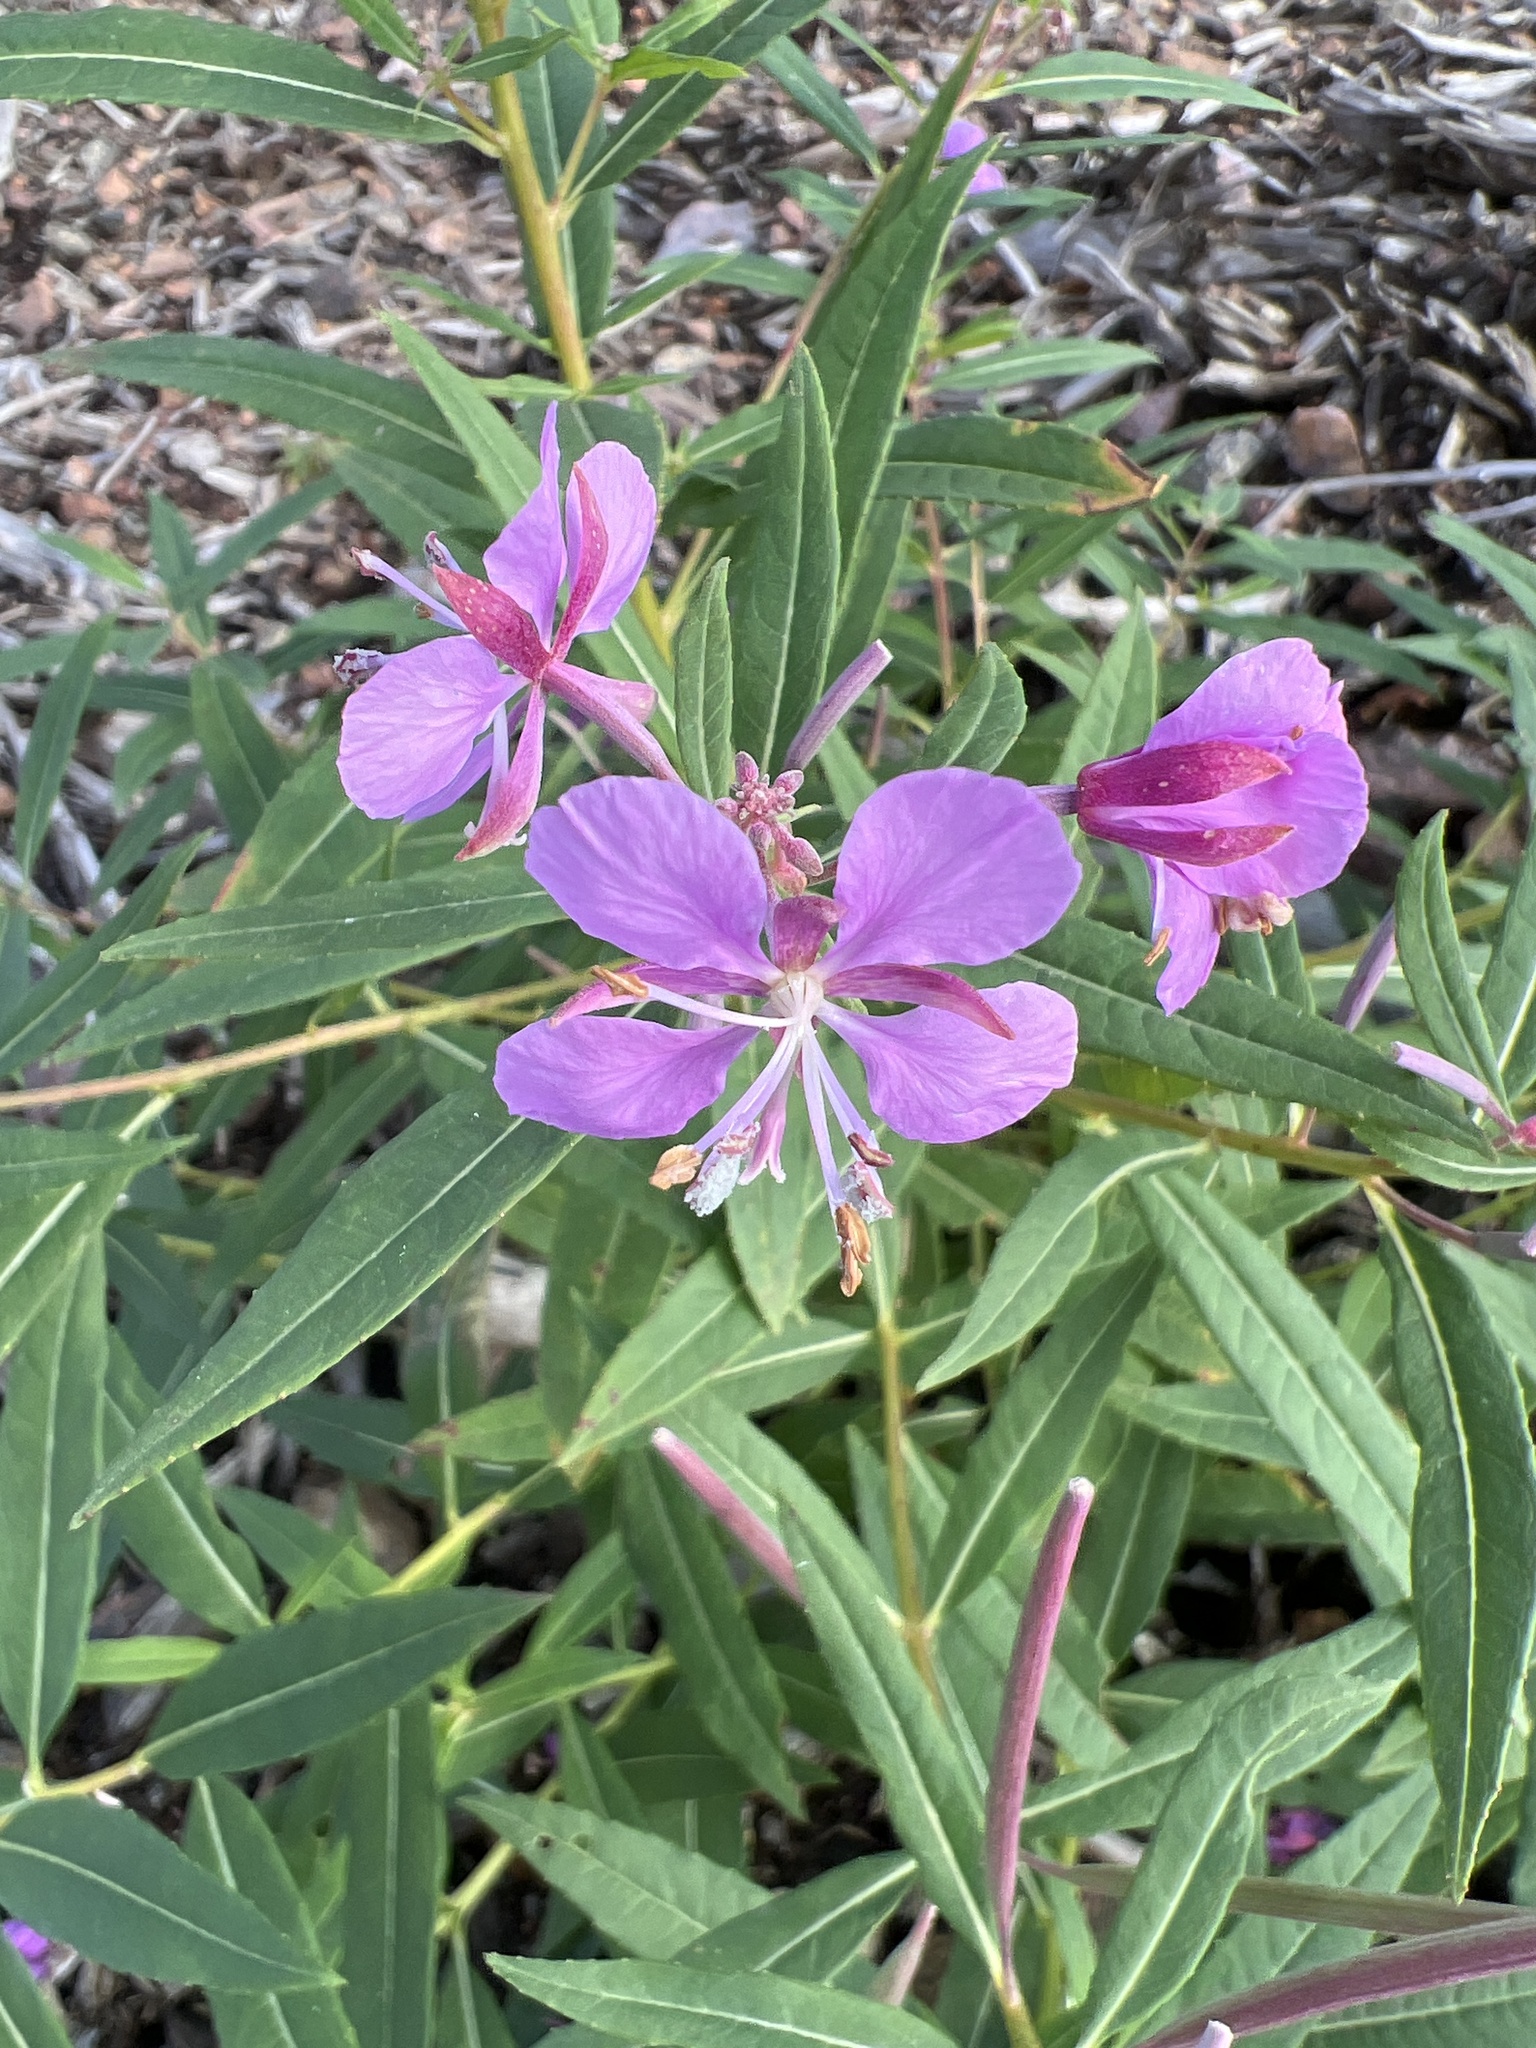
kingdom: Plantae
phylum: Tracheophyta
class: Magnoliopsida
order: Myrtales
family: Onagraceae
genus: Chamaenerion
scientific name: Chamaenerion angustifolium
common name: Fireweed
